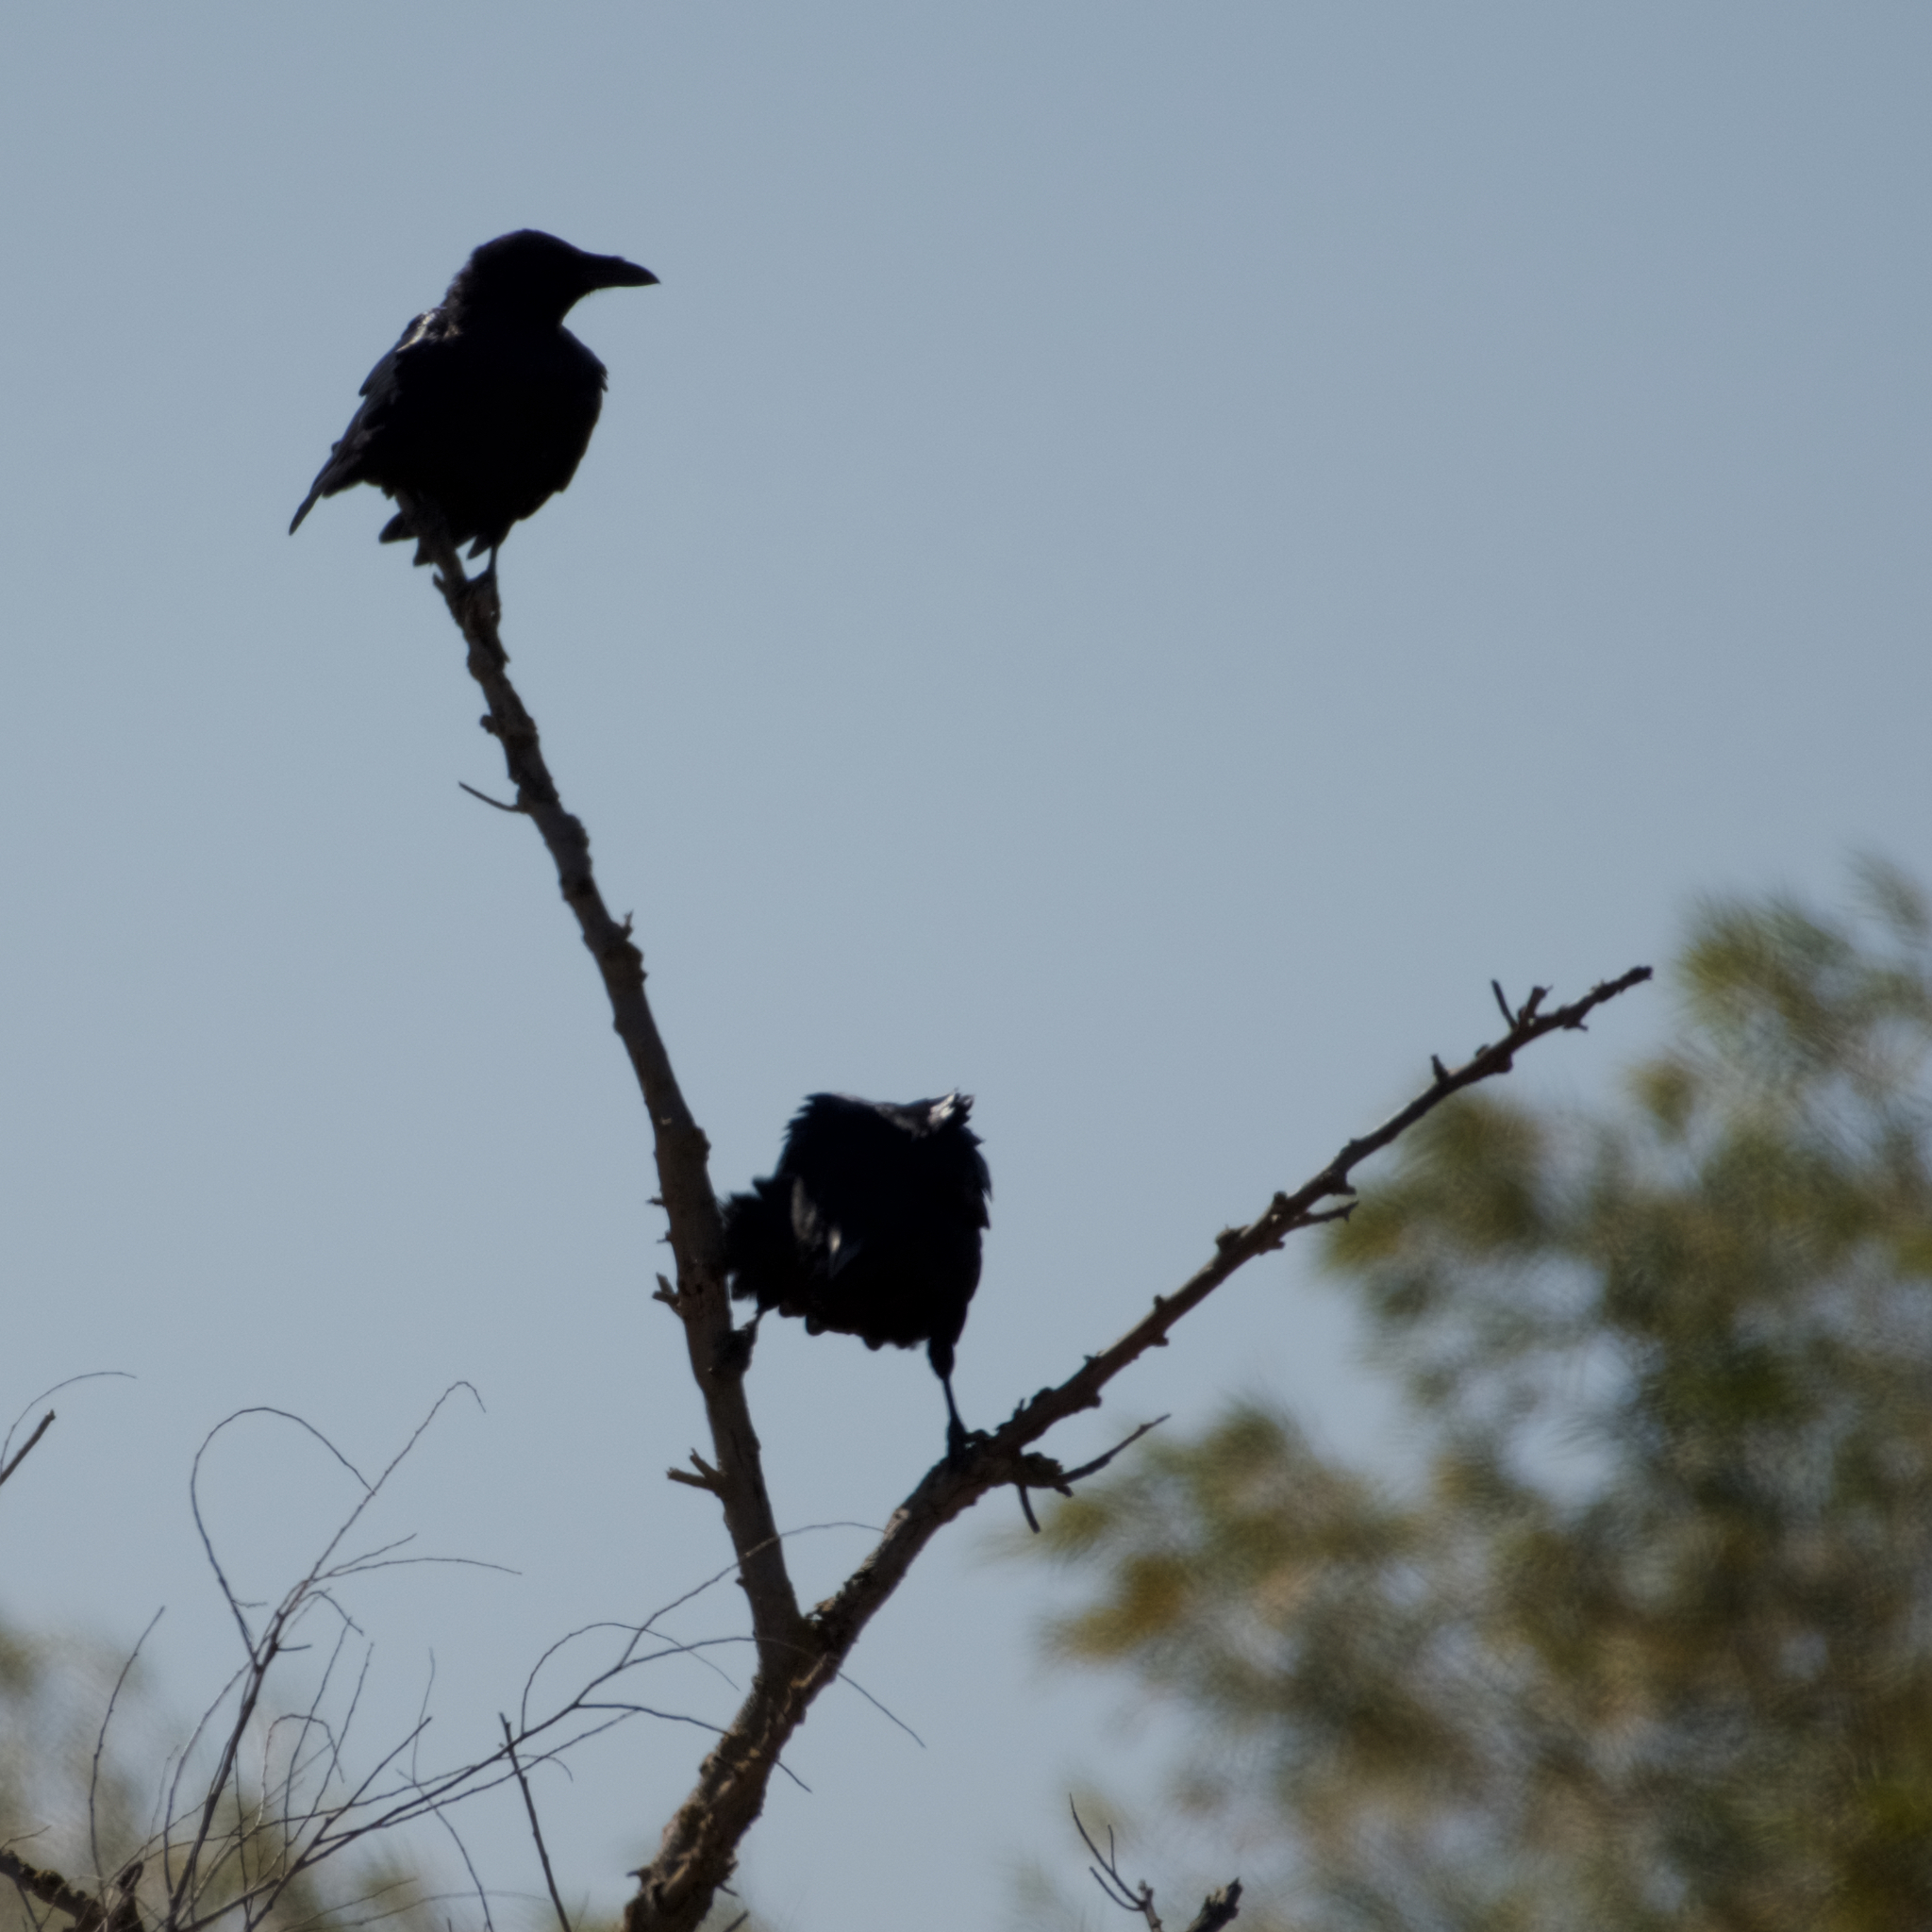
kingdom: Animalia
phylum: Chordata
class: Aves
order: Passeriformes
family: Corvidae
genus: Corvus
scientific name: Corvus corax
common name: Common raven
